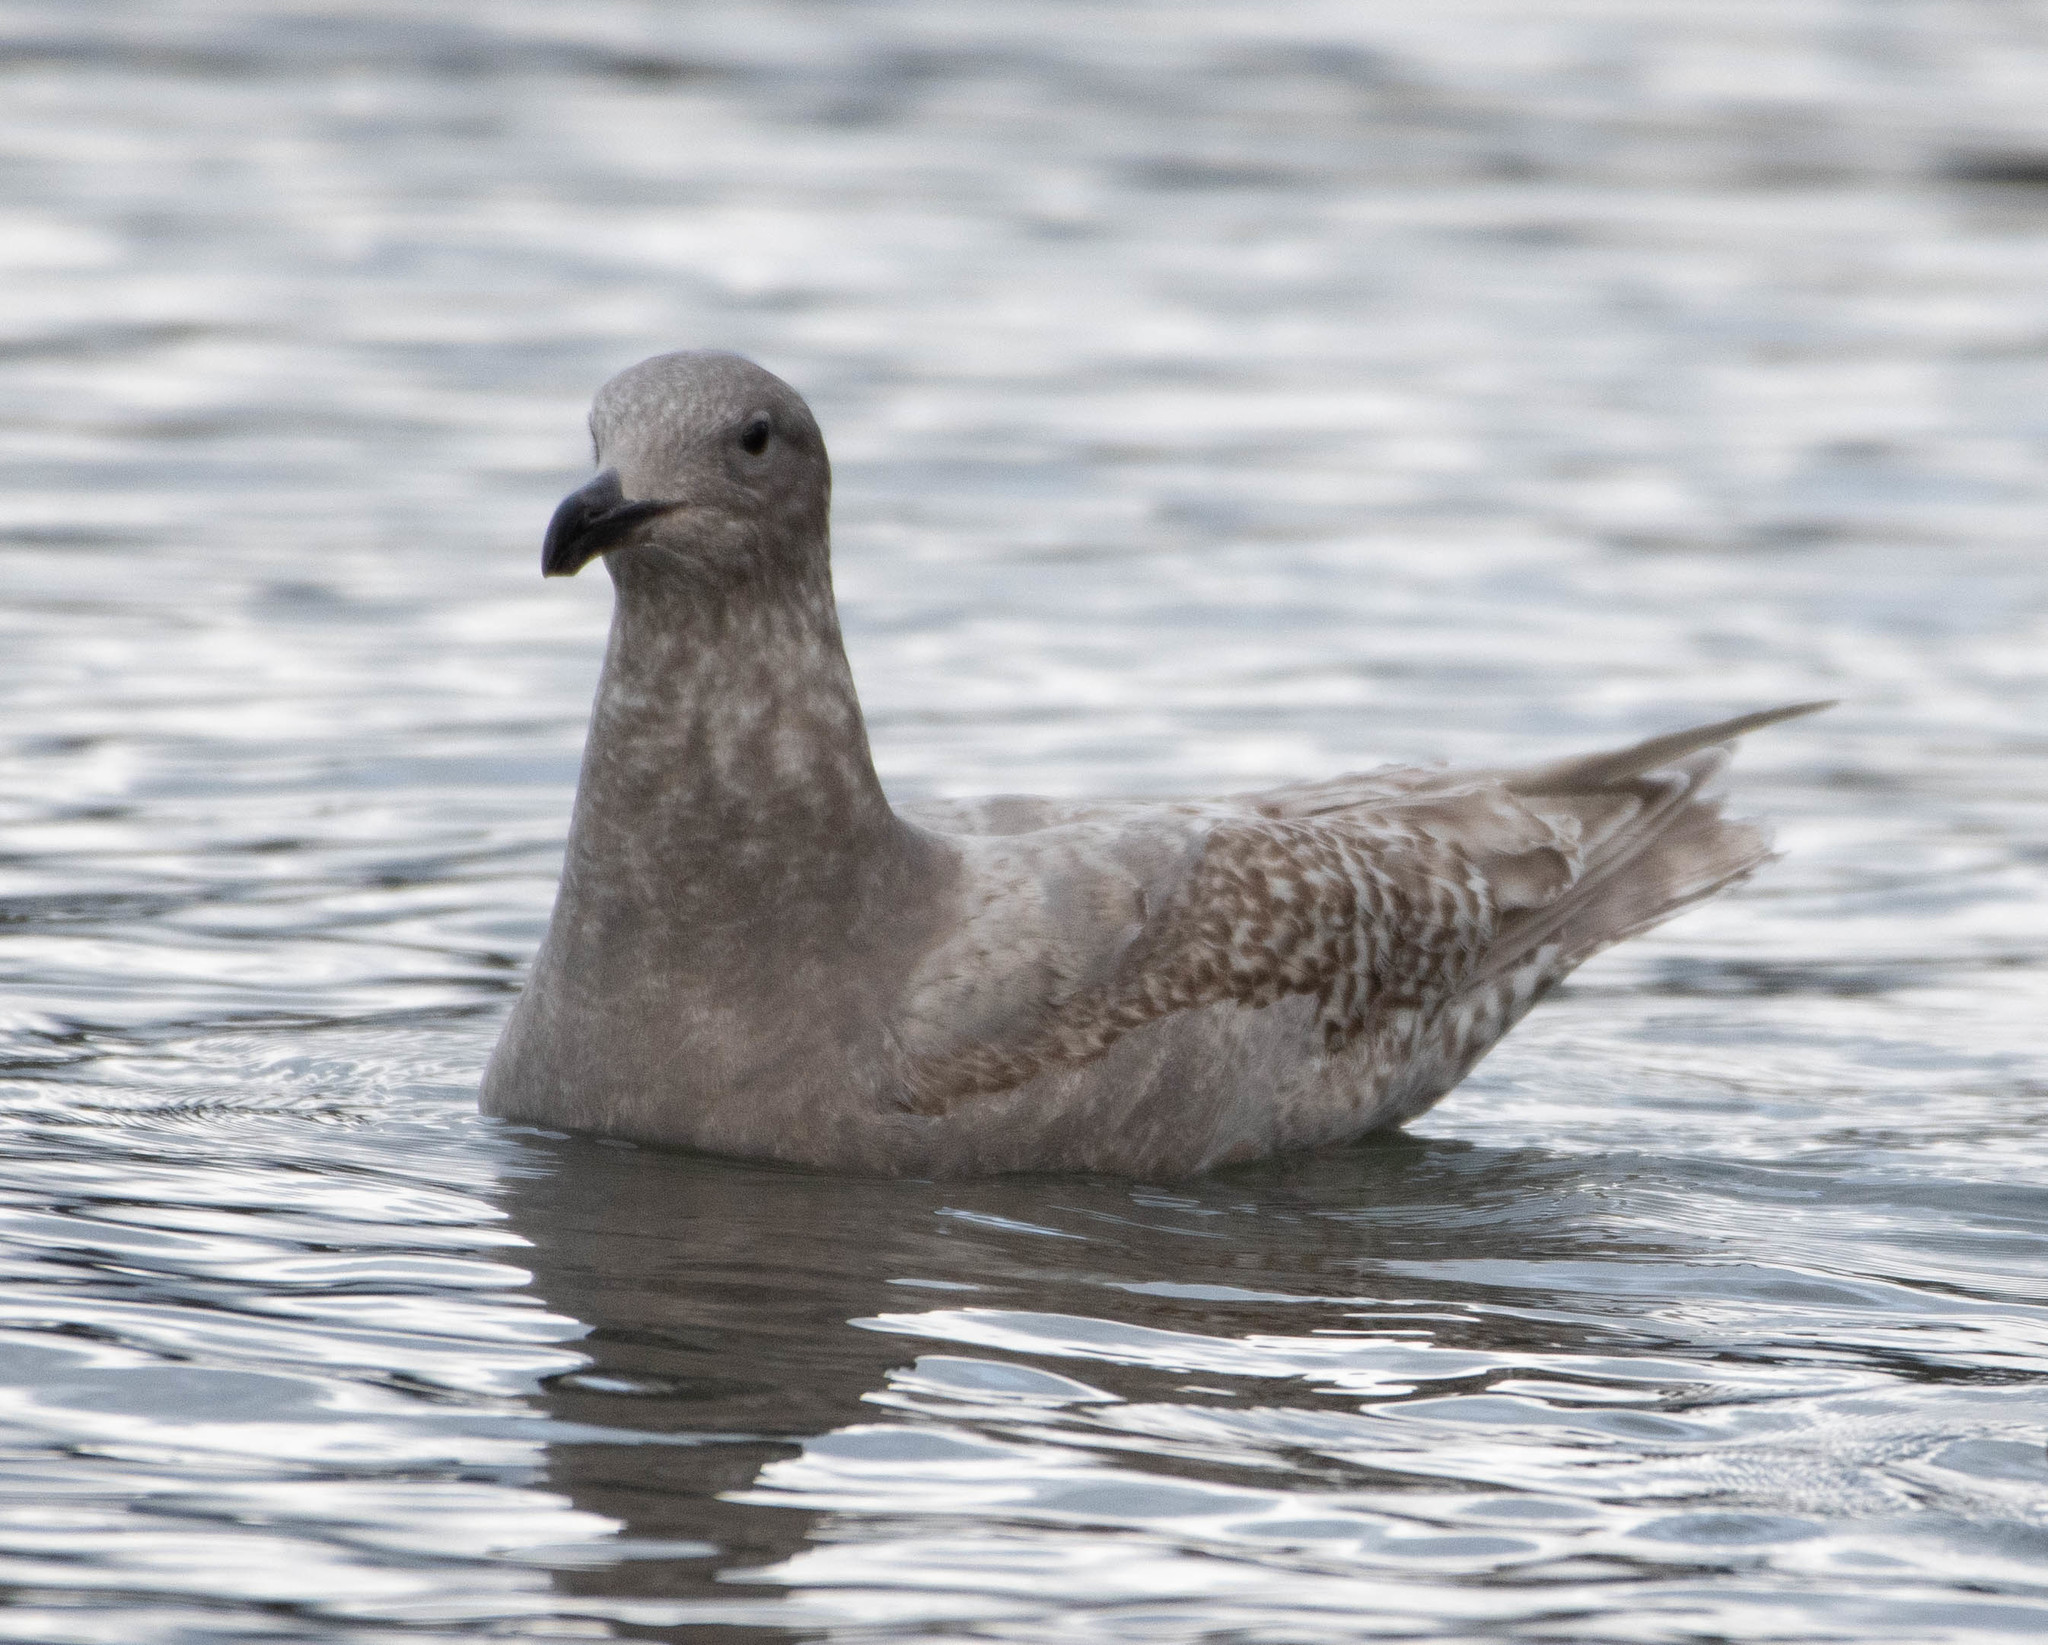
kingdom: Animalia
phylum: Chordata
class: Aves
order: Charadriiformes
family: Laridae
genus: Larus
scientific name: Larus glaucescens
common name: Glaucous-winged gull
